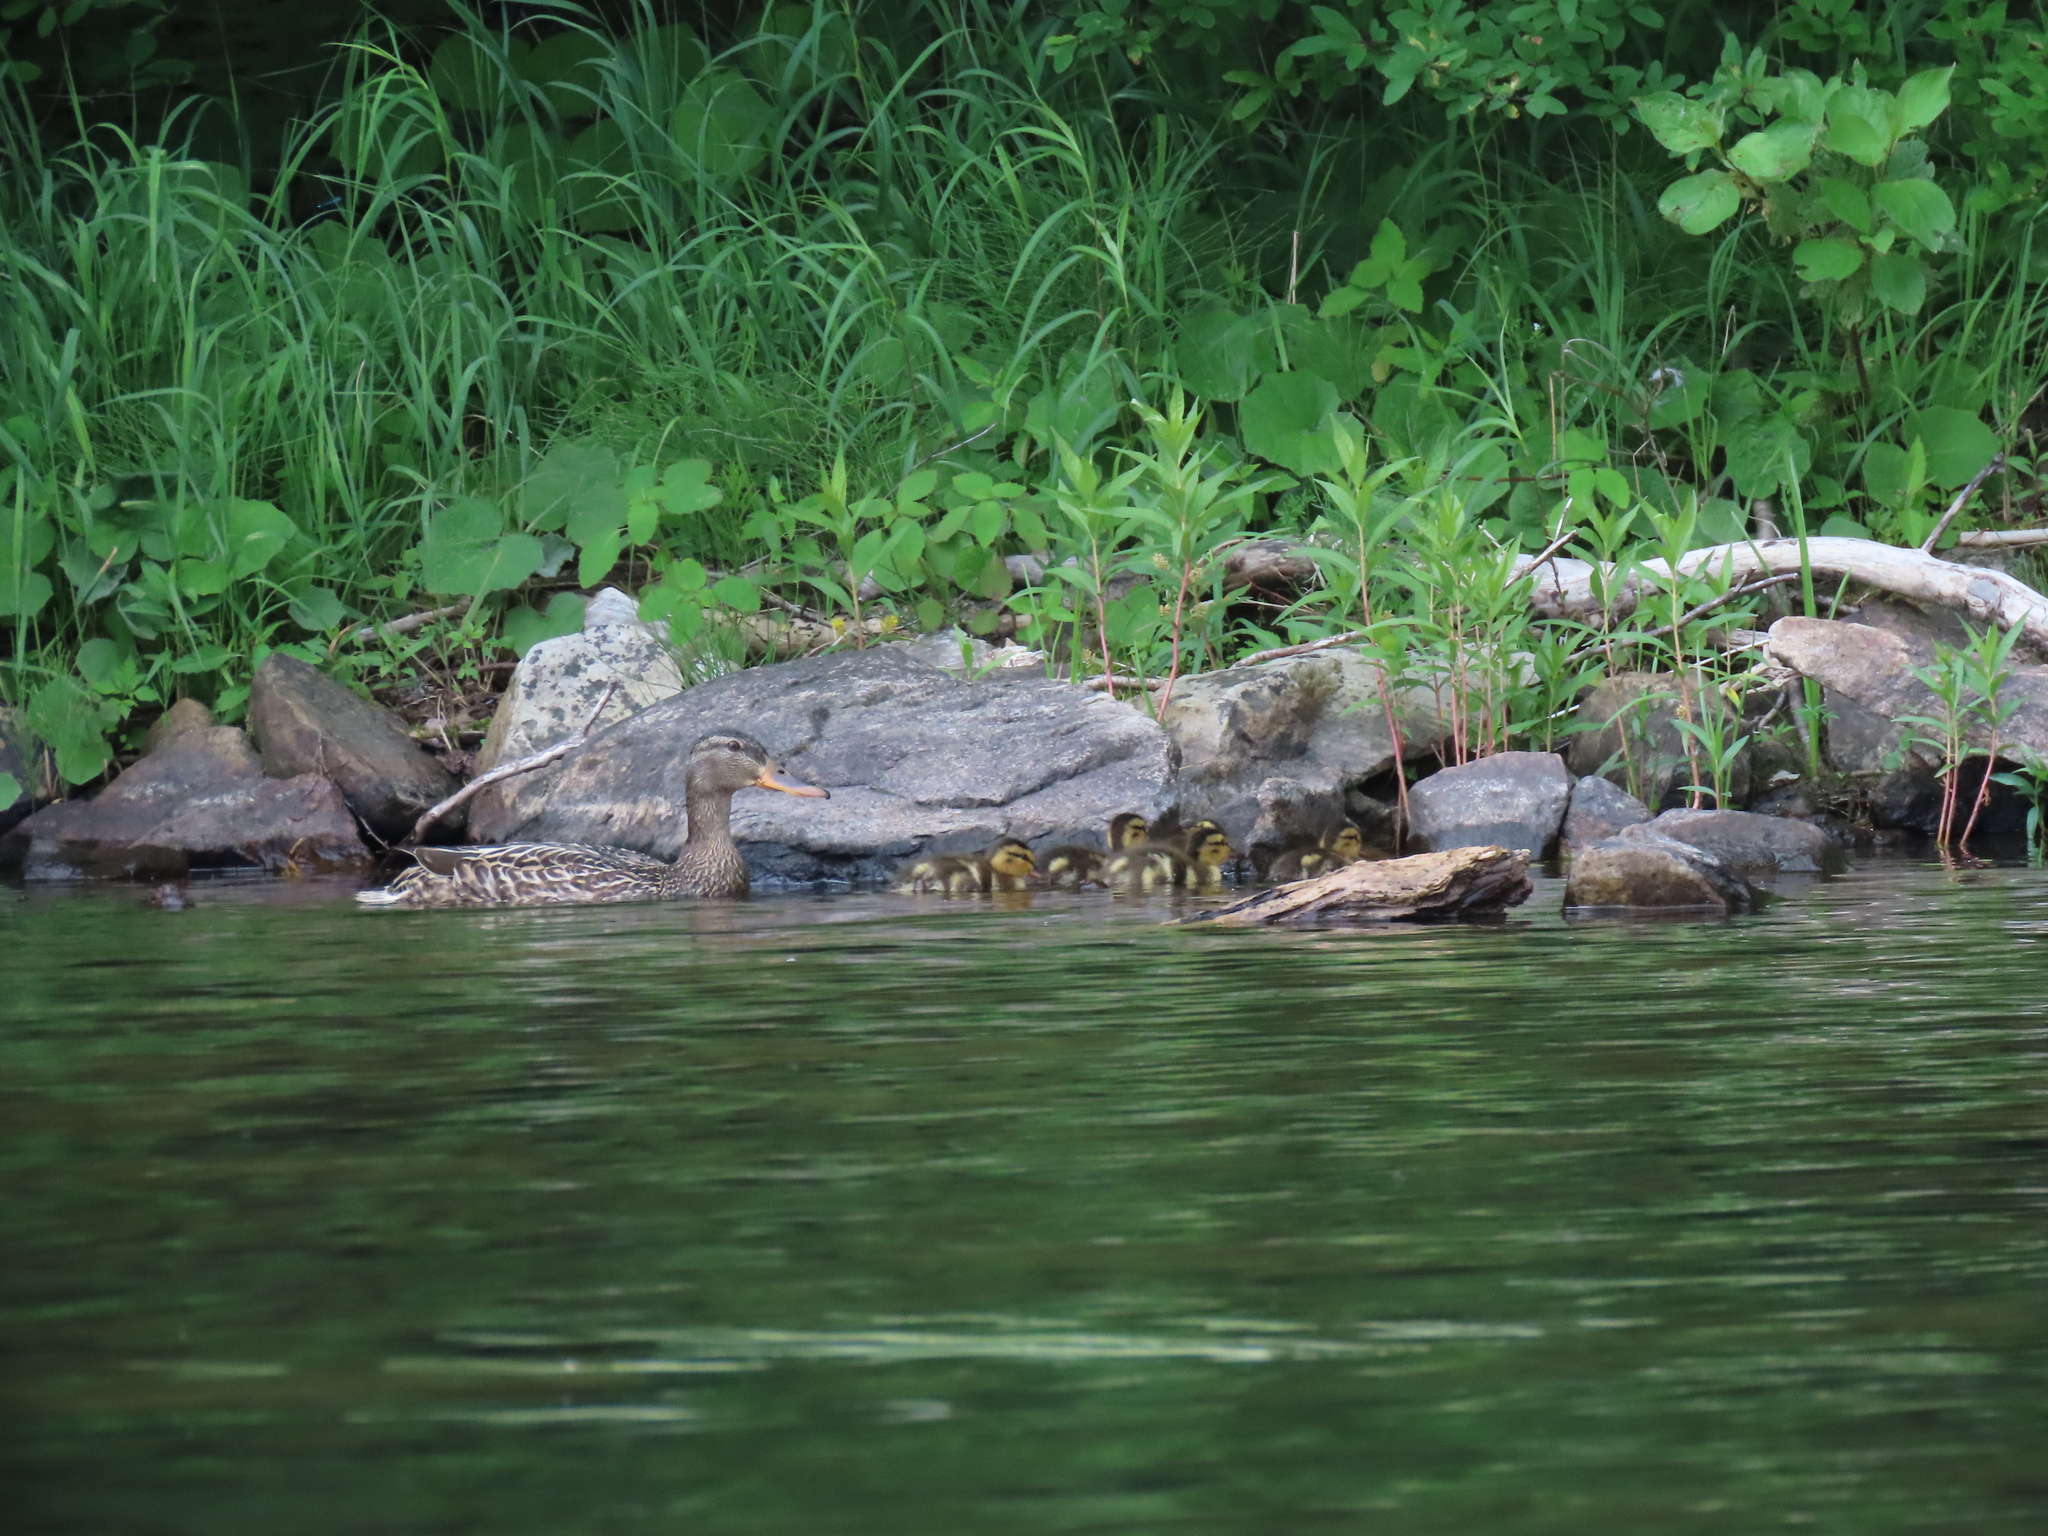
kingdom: Animalia
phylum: Chordata
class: Aves
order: Anseriformes
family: Anatidae
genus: Anas
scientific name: Anas platyrhynchos
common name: Mallard
